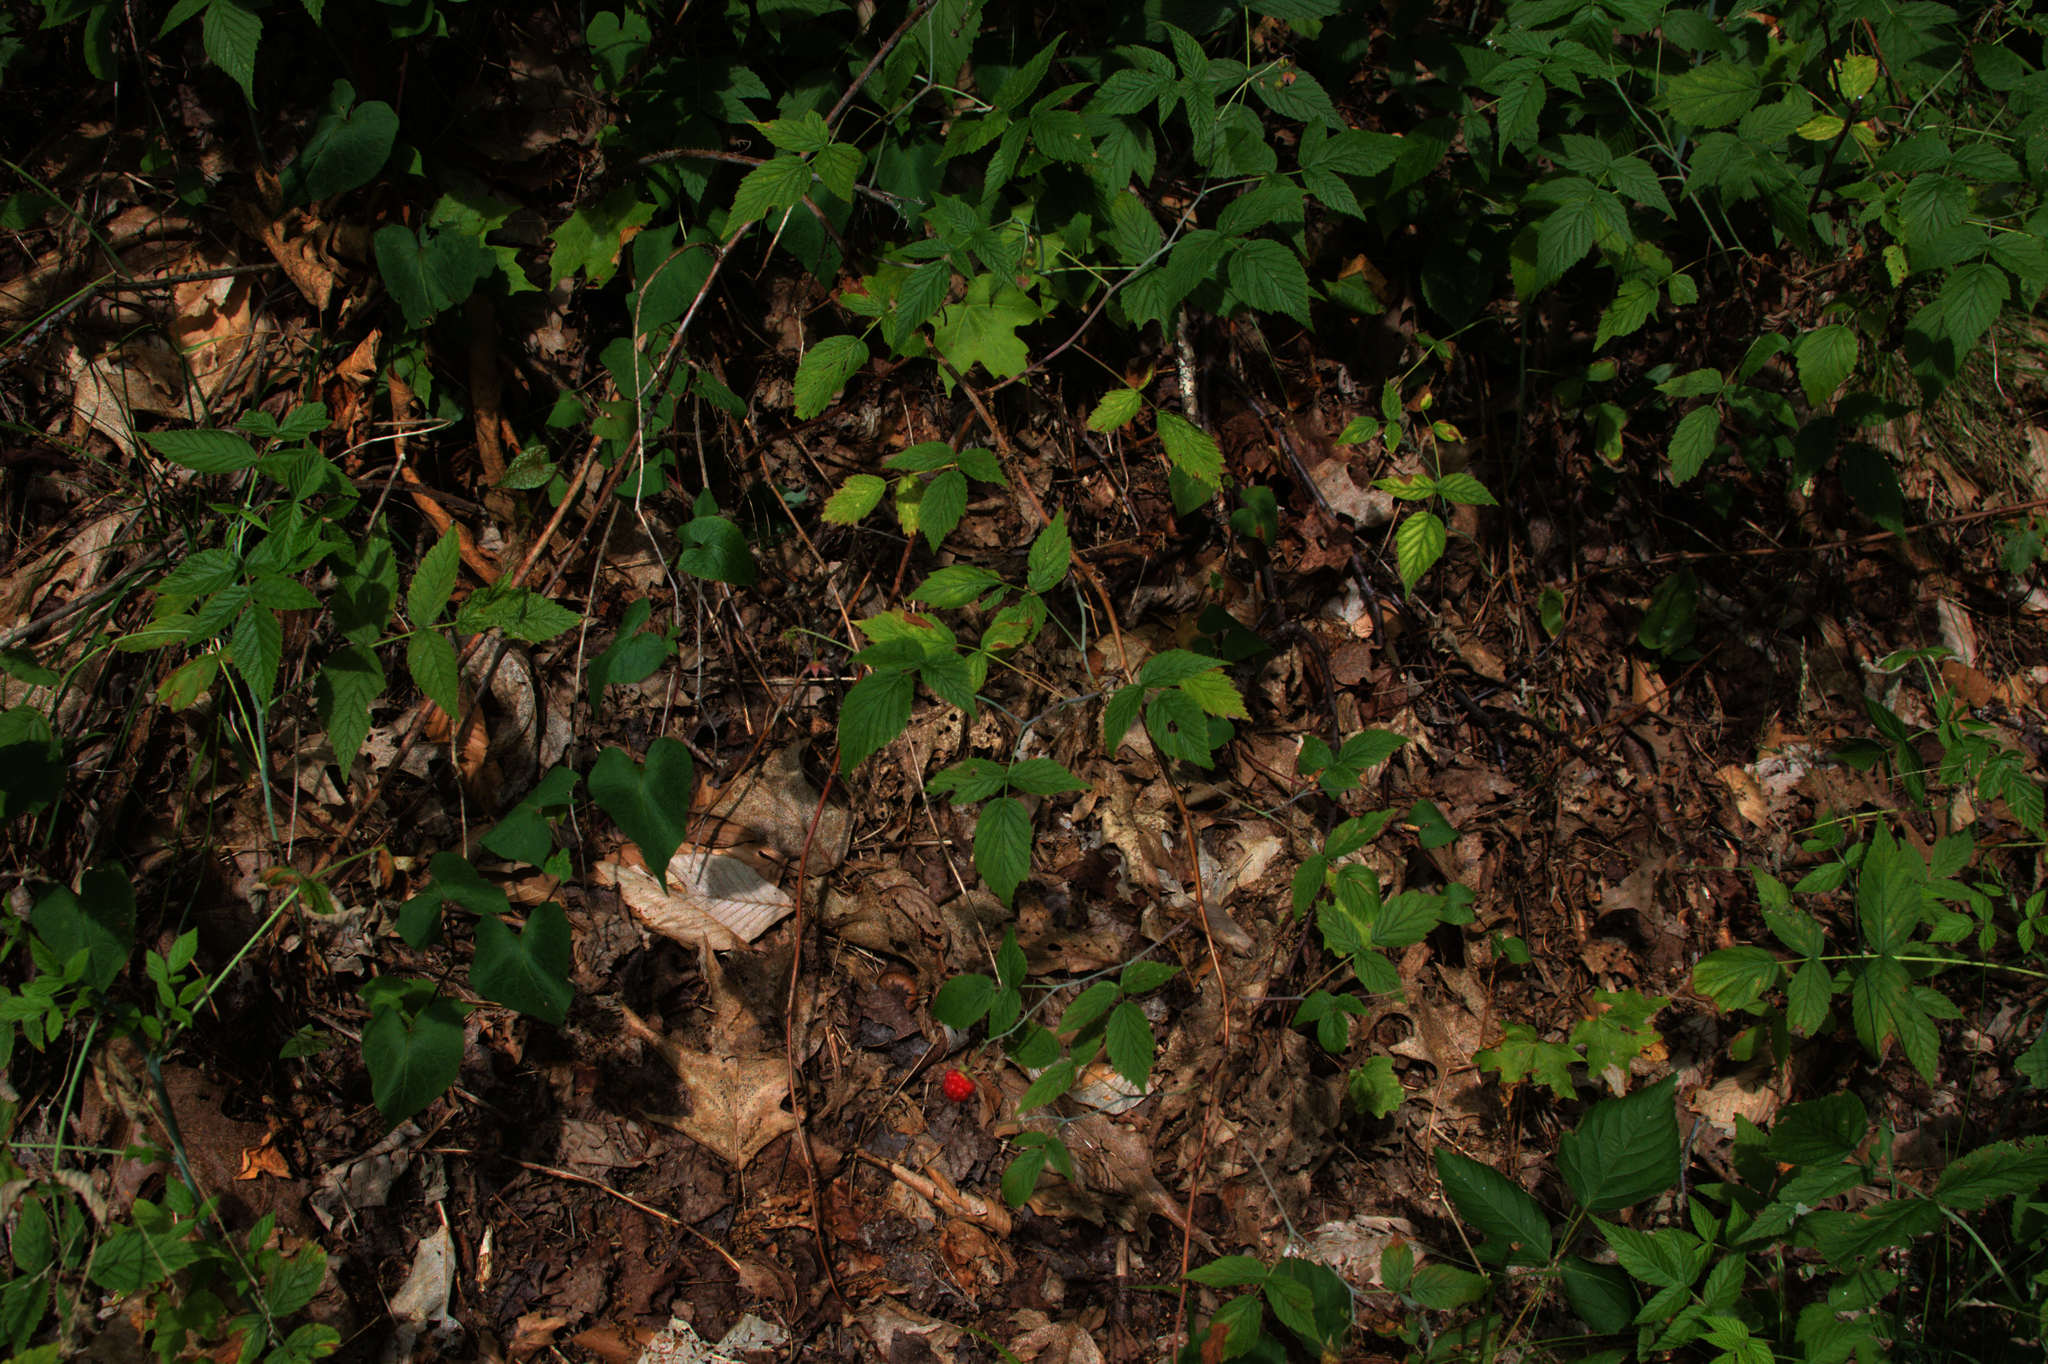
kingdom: Plantae
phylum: Tracheophyta
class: Magnoliopsida
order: Rosales
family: Rosaceae
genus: Rubus
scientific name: Rubus idaeus
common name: Raspberry
